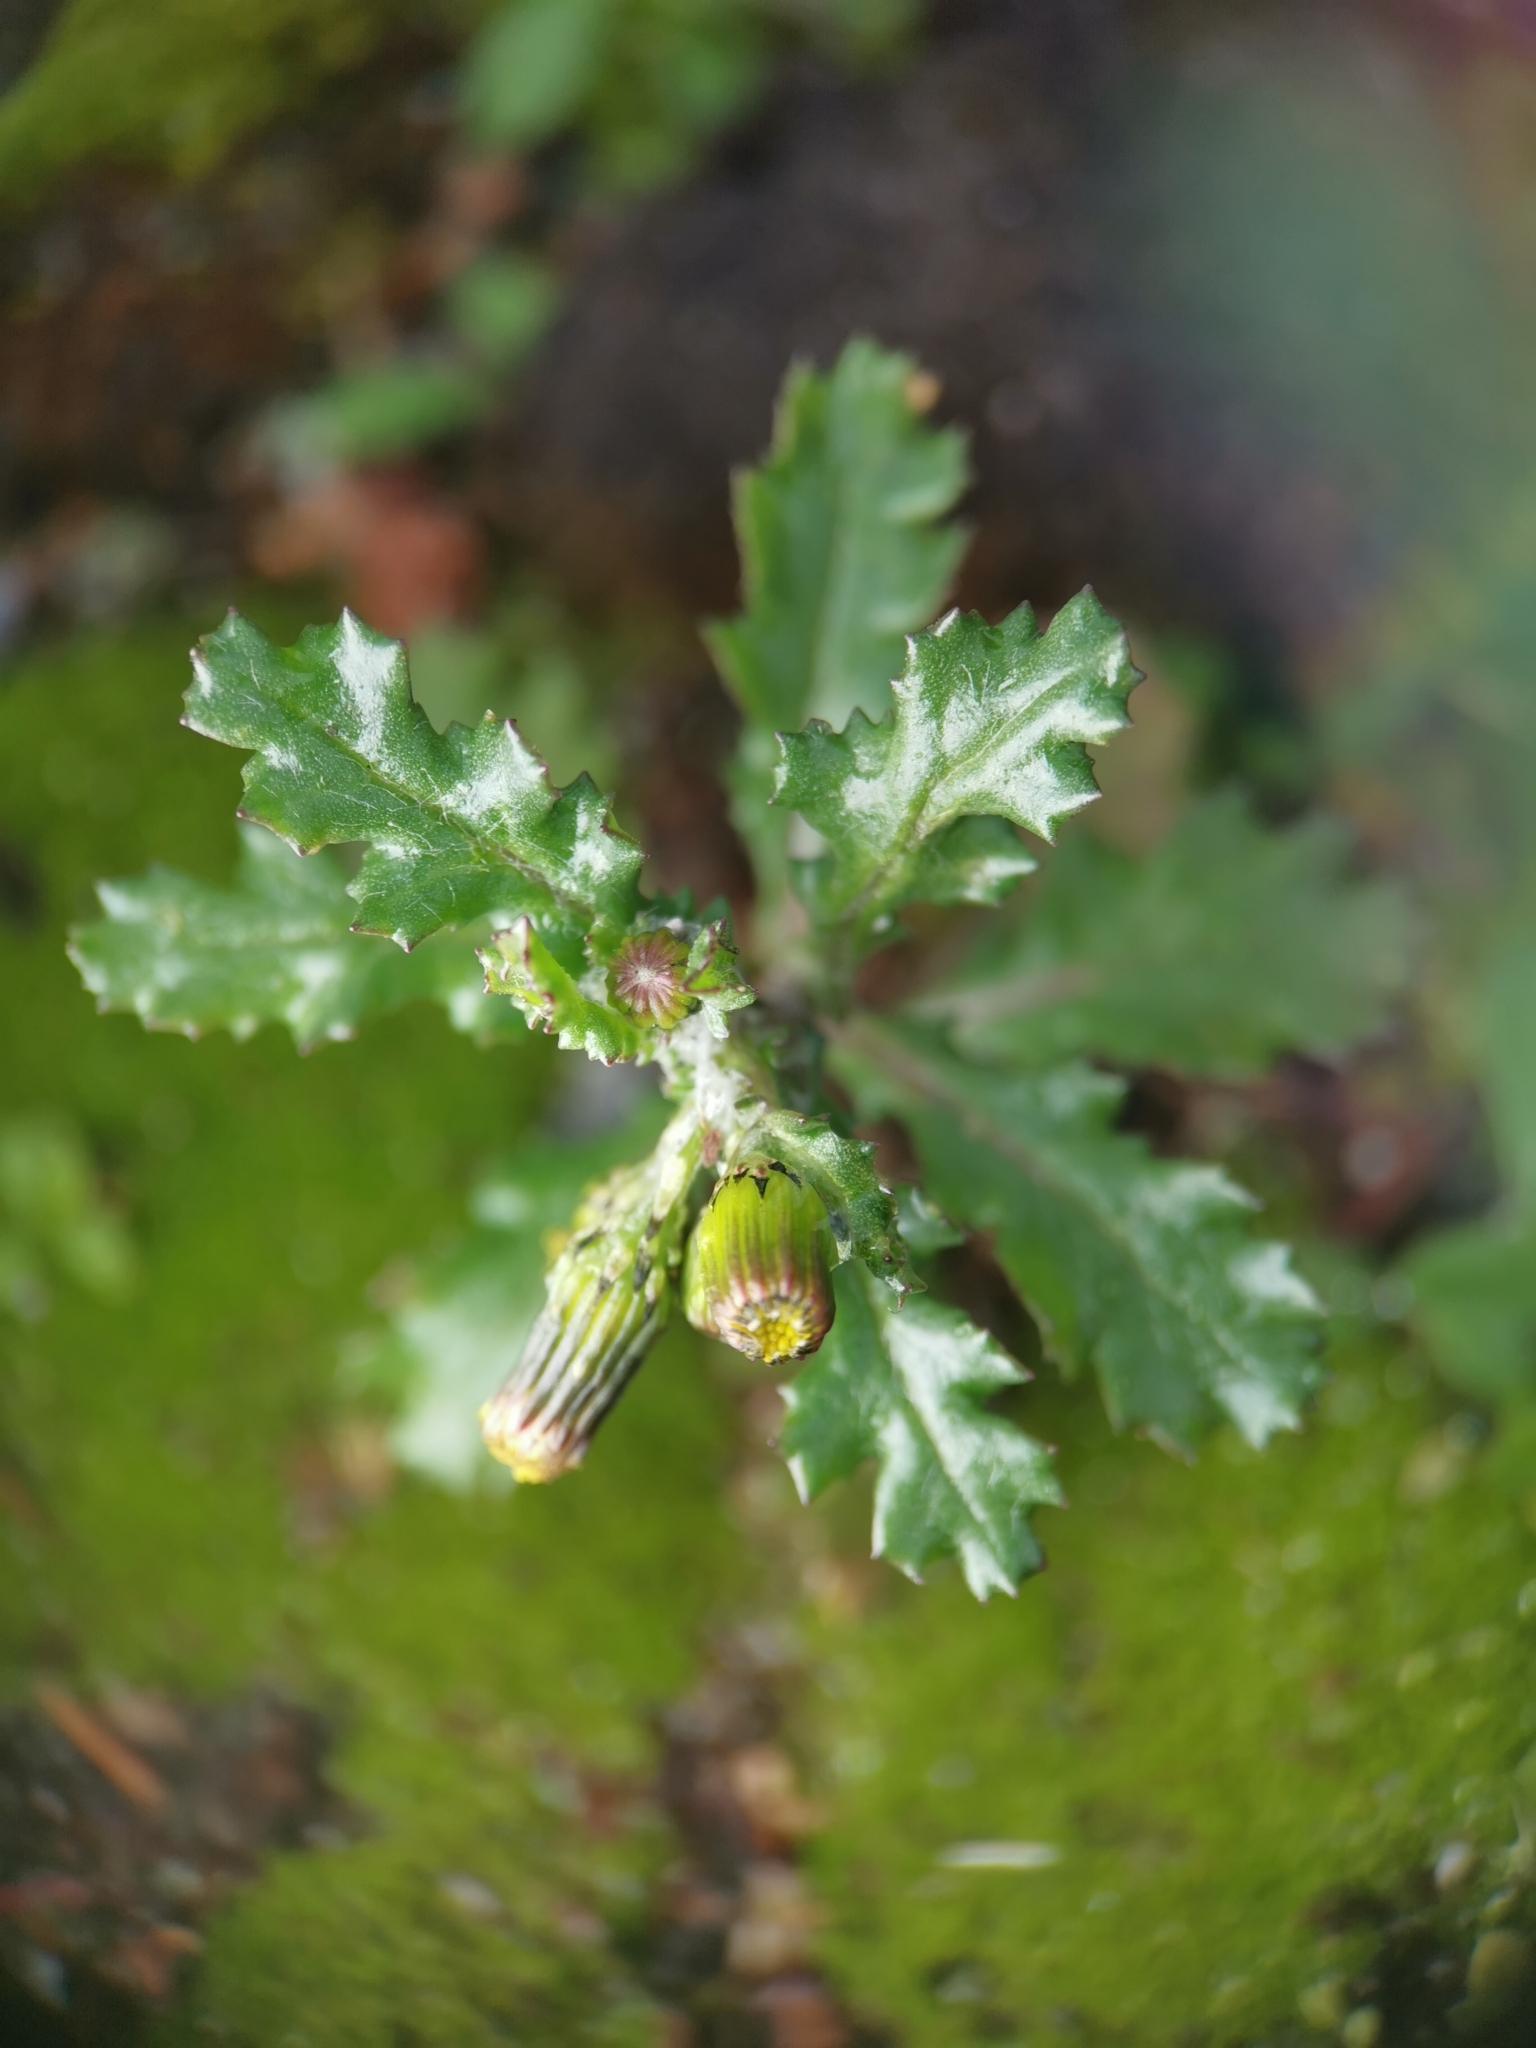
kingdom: Plantae
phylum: Tracheophyta
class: Magnoliopsida
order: Asterales
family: Asteraceae
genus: Senecio
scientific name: Senecio vulgaris
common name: Old-man-in-the-spring
